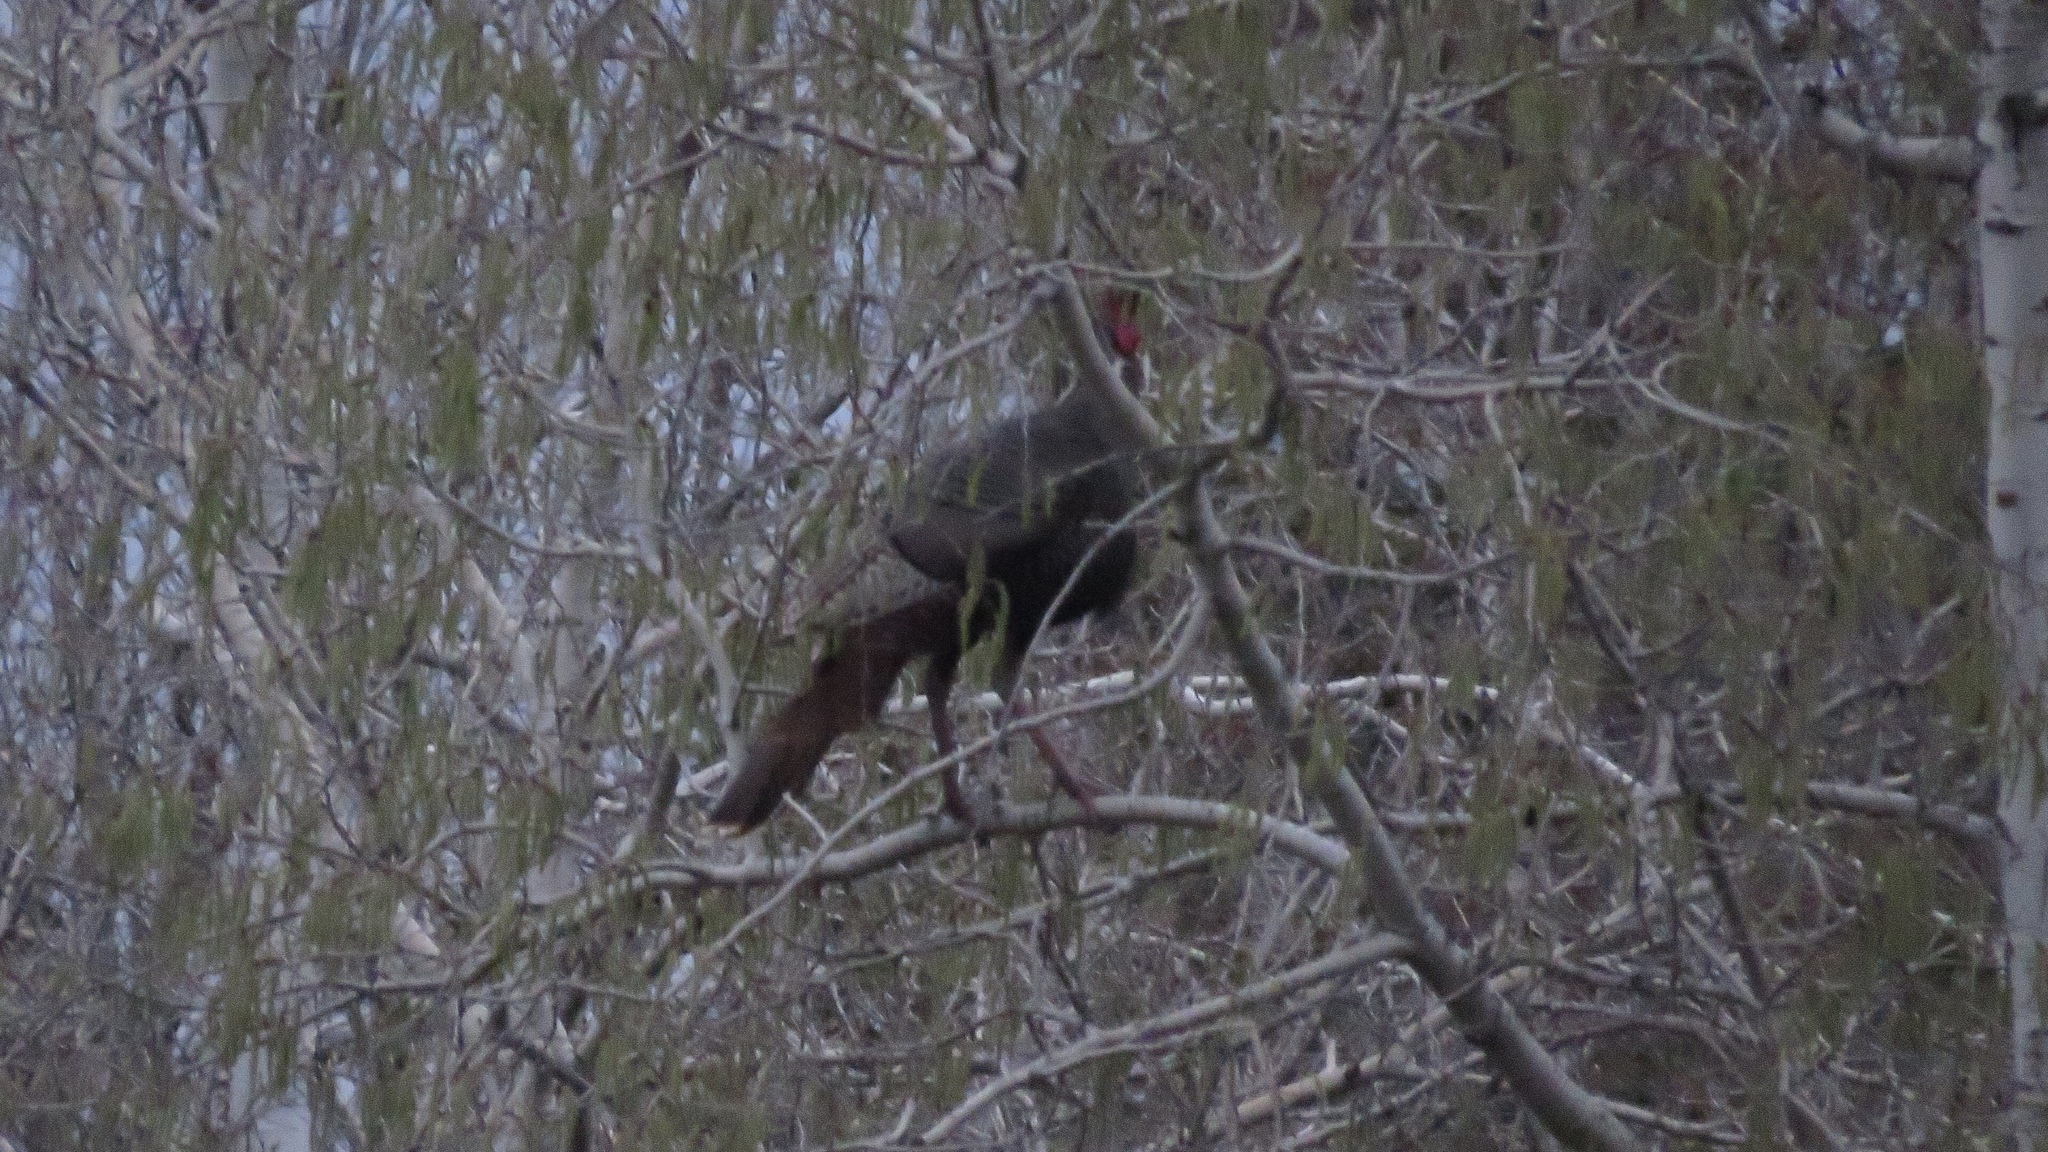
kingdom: Animalia
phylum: Chordata
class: Aves
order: Galliformes
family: Phasianidae
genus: Meleagris
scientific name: Meleagris gallopavo
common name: Wild turkey
